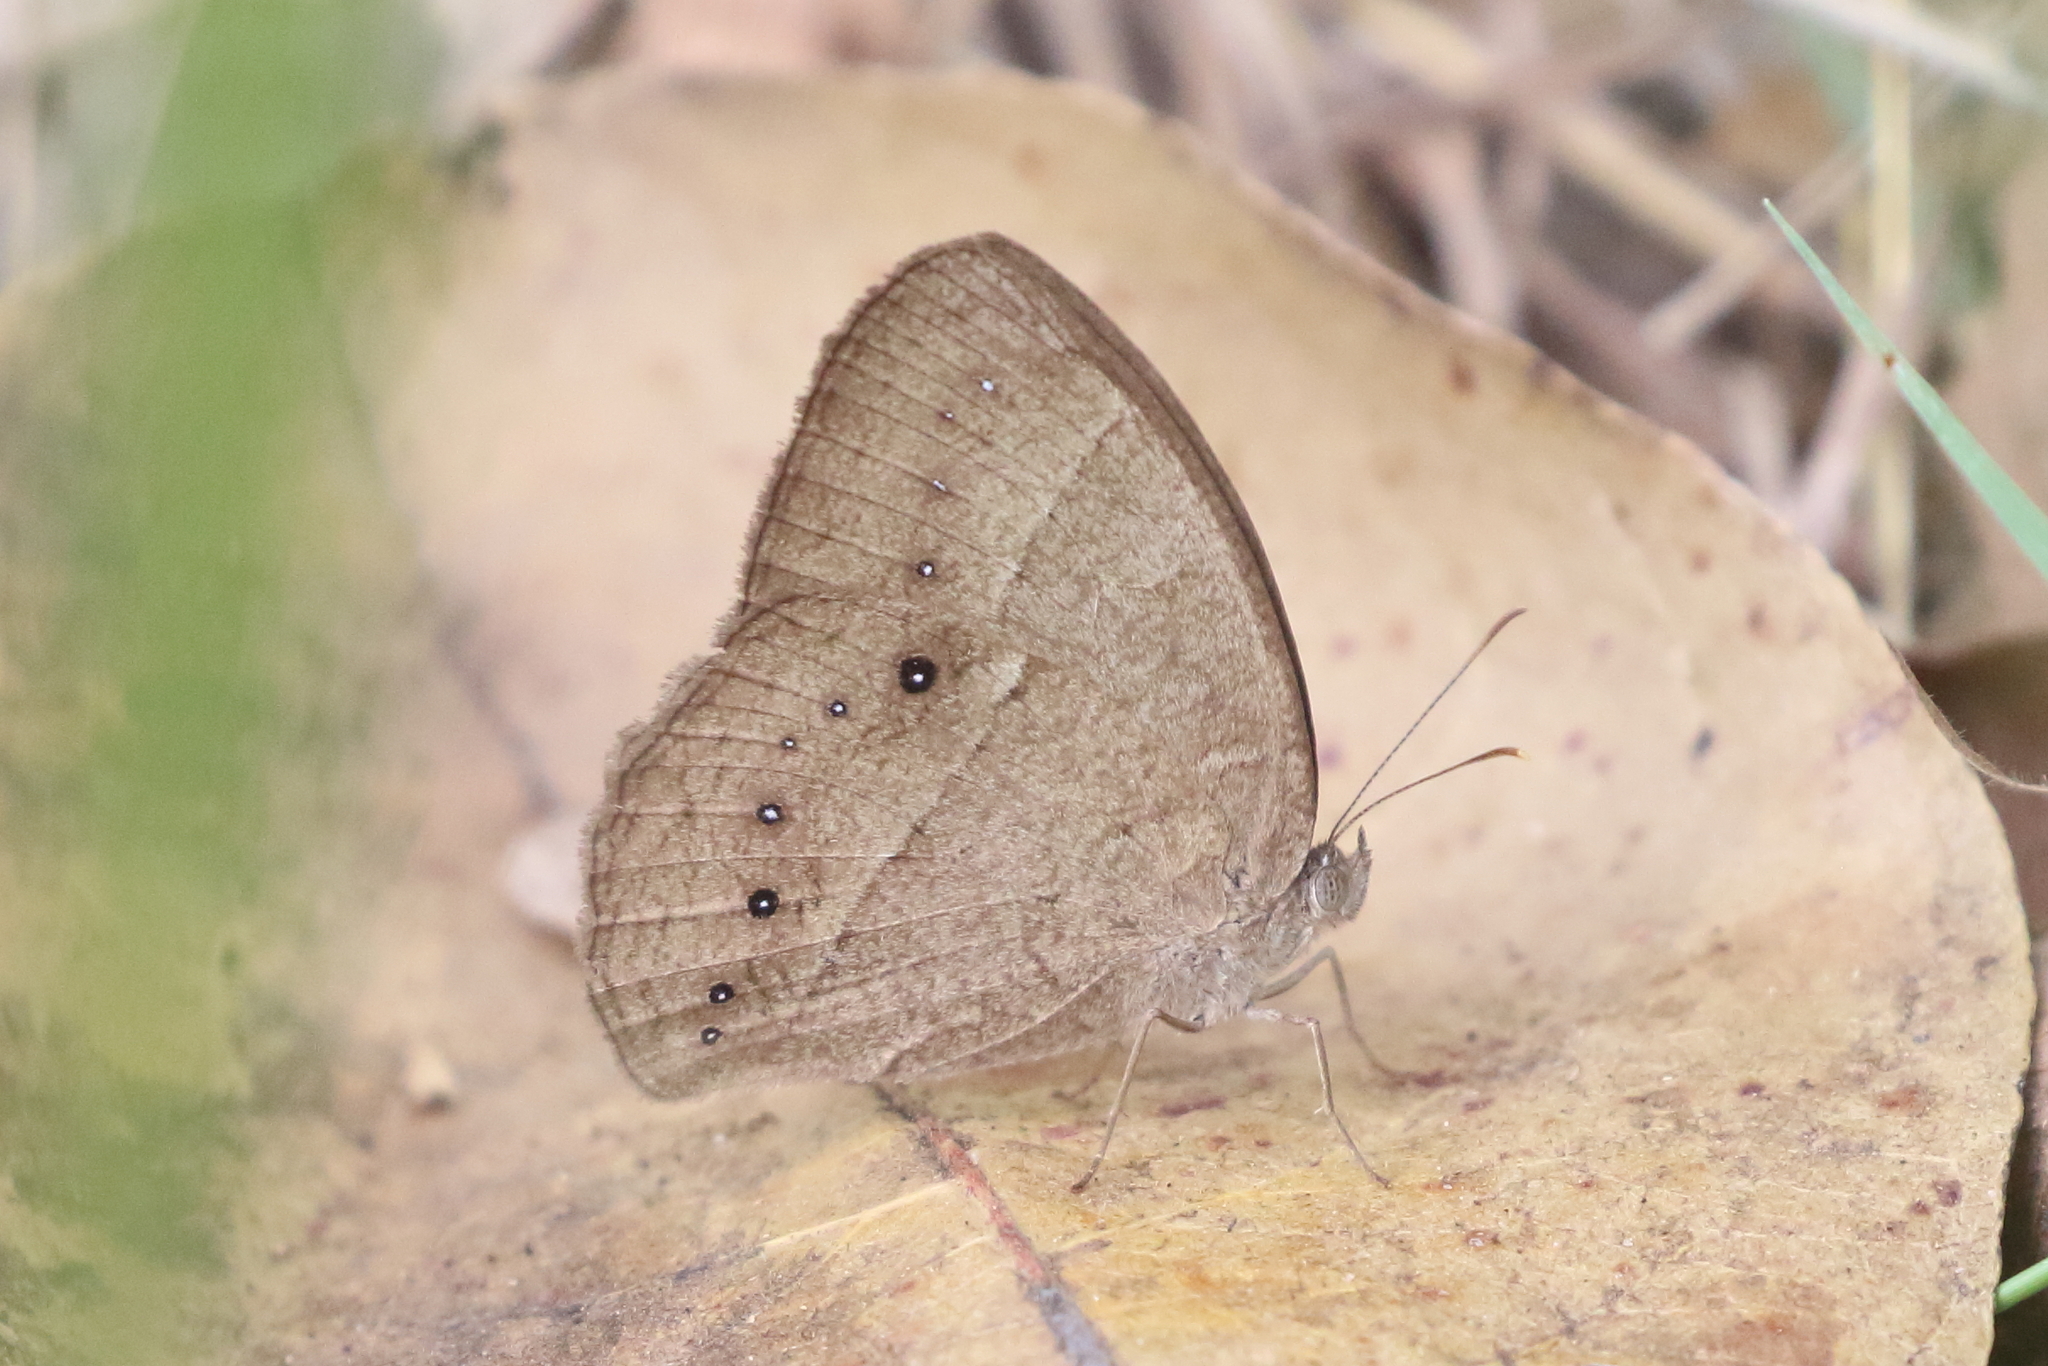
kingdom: Animalia
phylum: Arthropoda
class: Insecta
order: Lepidoptera
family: Nymphalidae
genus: Mycalesis
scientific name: Mycalesis perseus
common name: Dingy bushbrown
